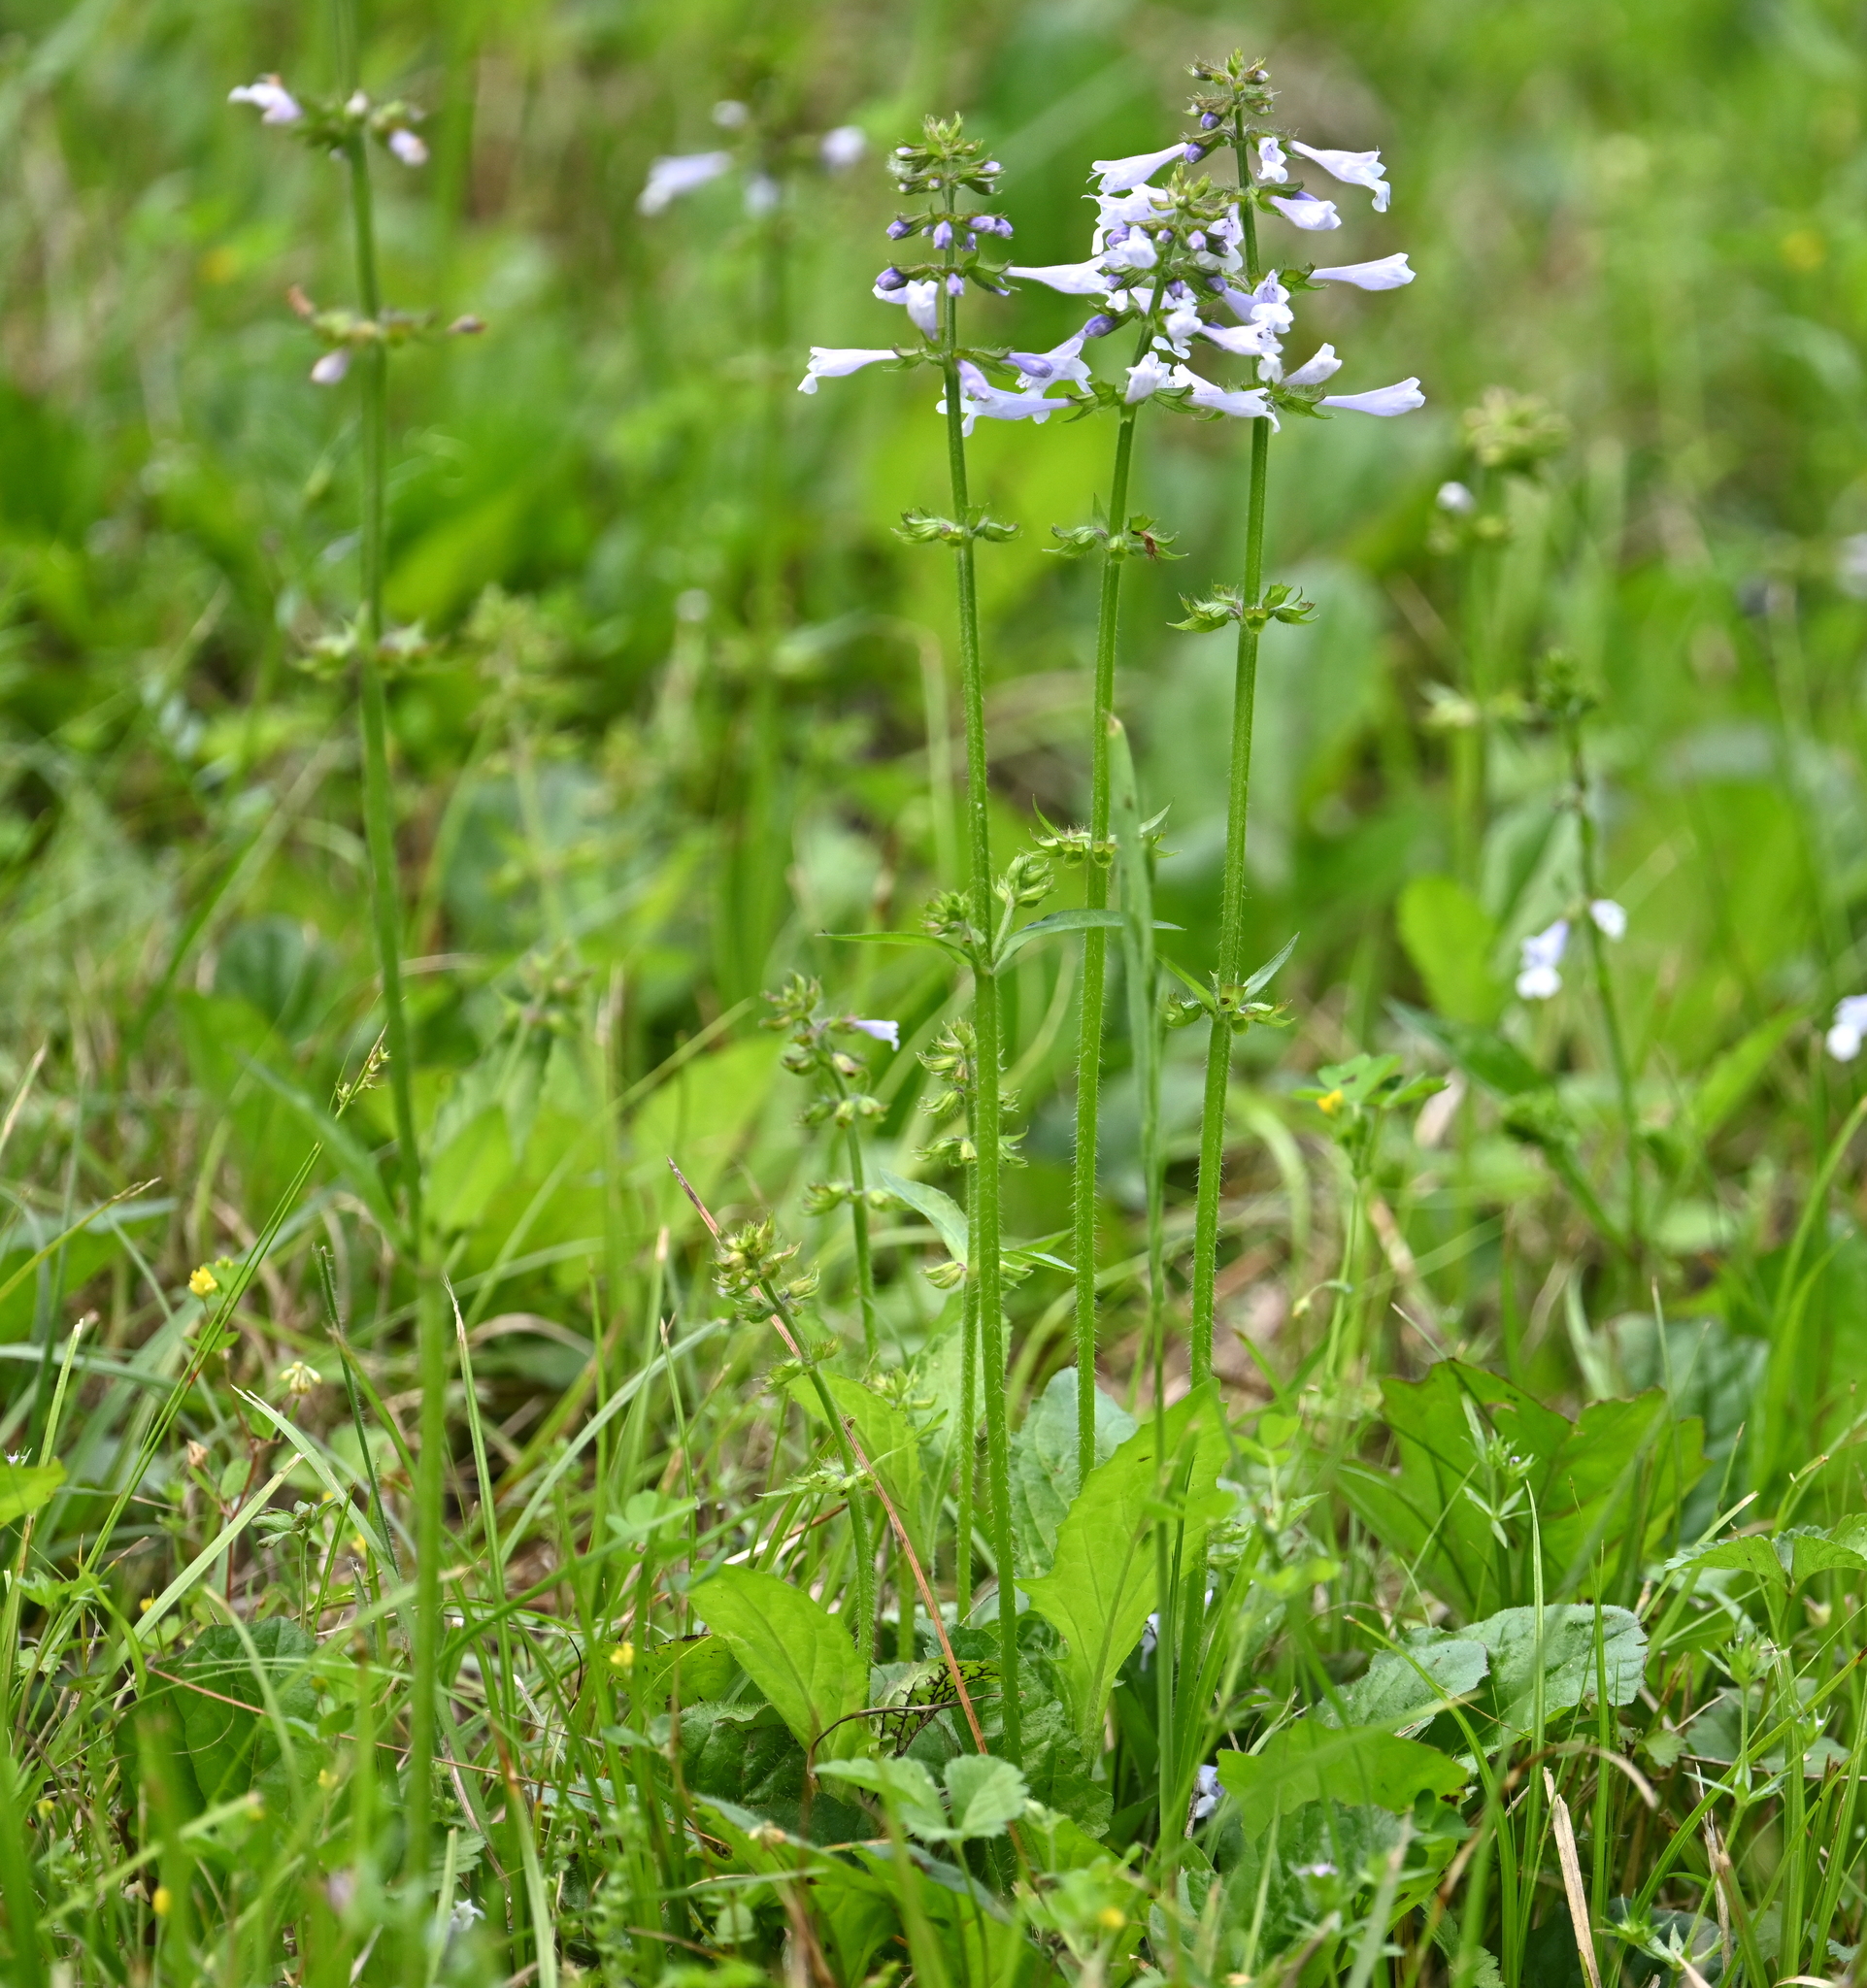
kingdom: Plantae
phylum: Tracheophyta
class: Magnoliopsida
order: Lamiales
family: Lamiaceae
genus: Salvia
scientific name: Salvia lyrata
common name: Cancerweed
